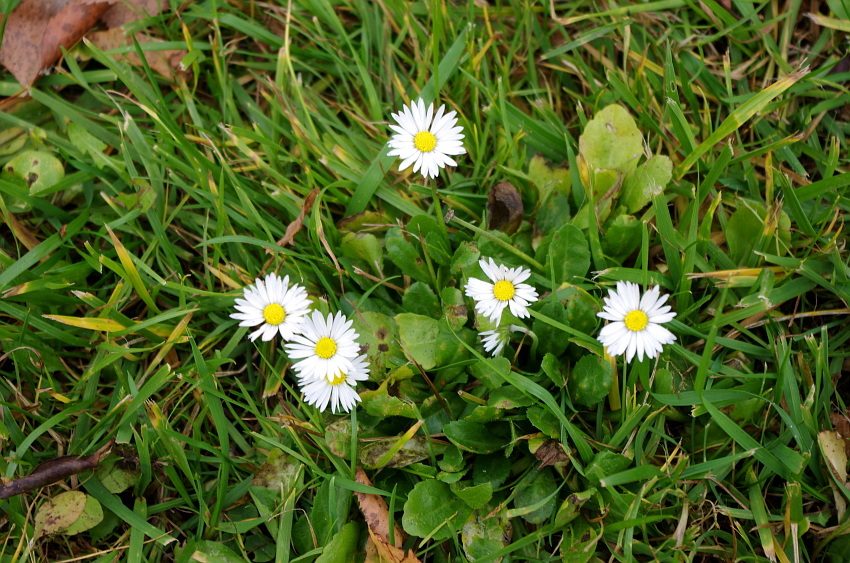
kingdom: Plantae
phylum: Tracheophyta
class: Magnoliopsida
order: Asterales
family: Asteraceae
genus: Bellis
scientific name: Bellis perennis
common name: Lawndaisy
